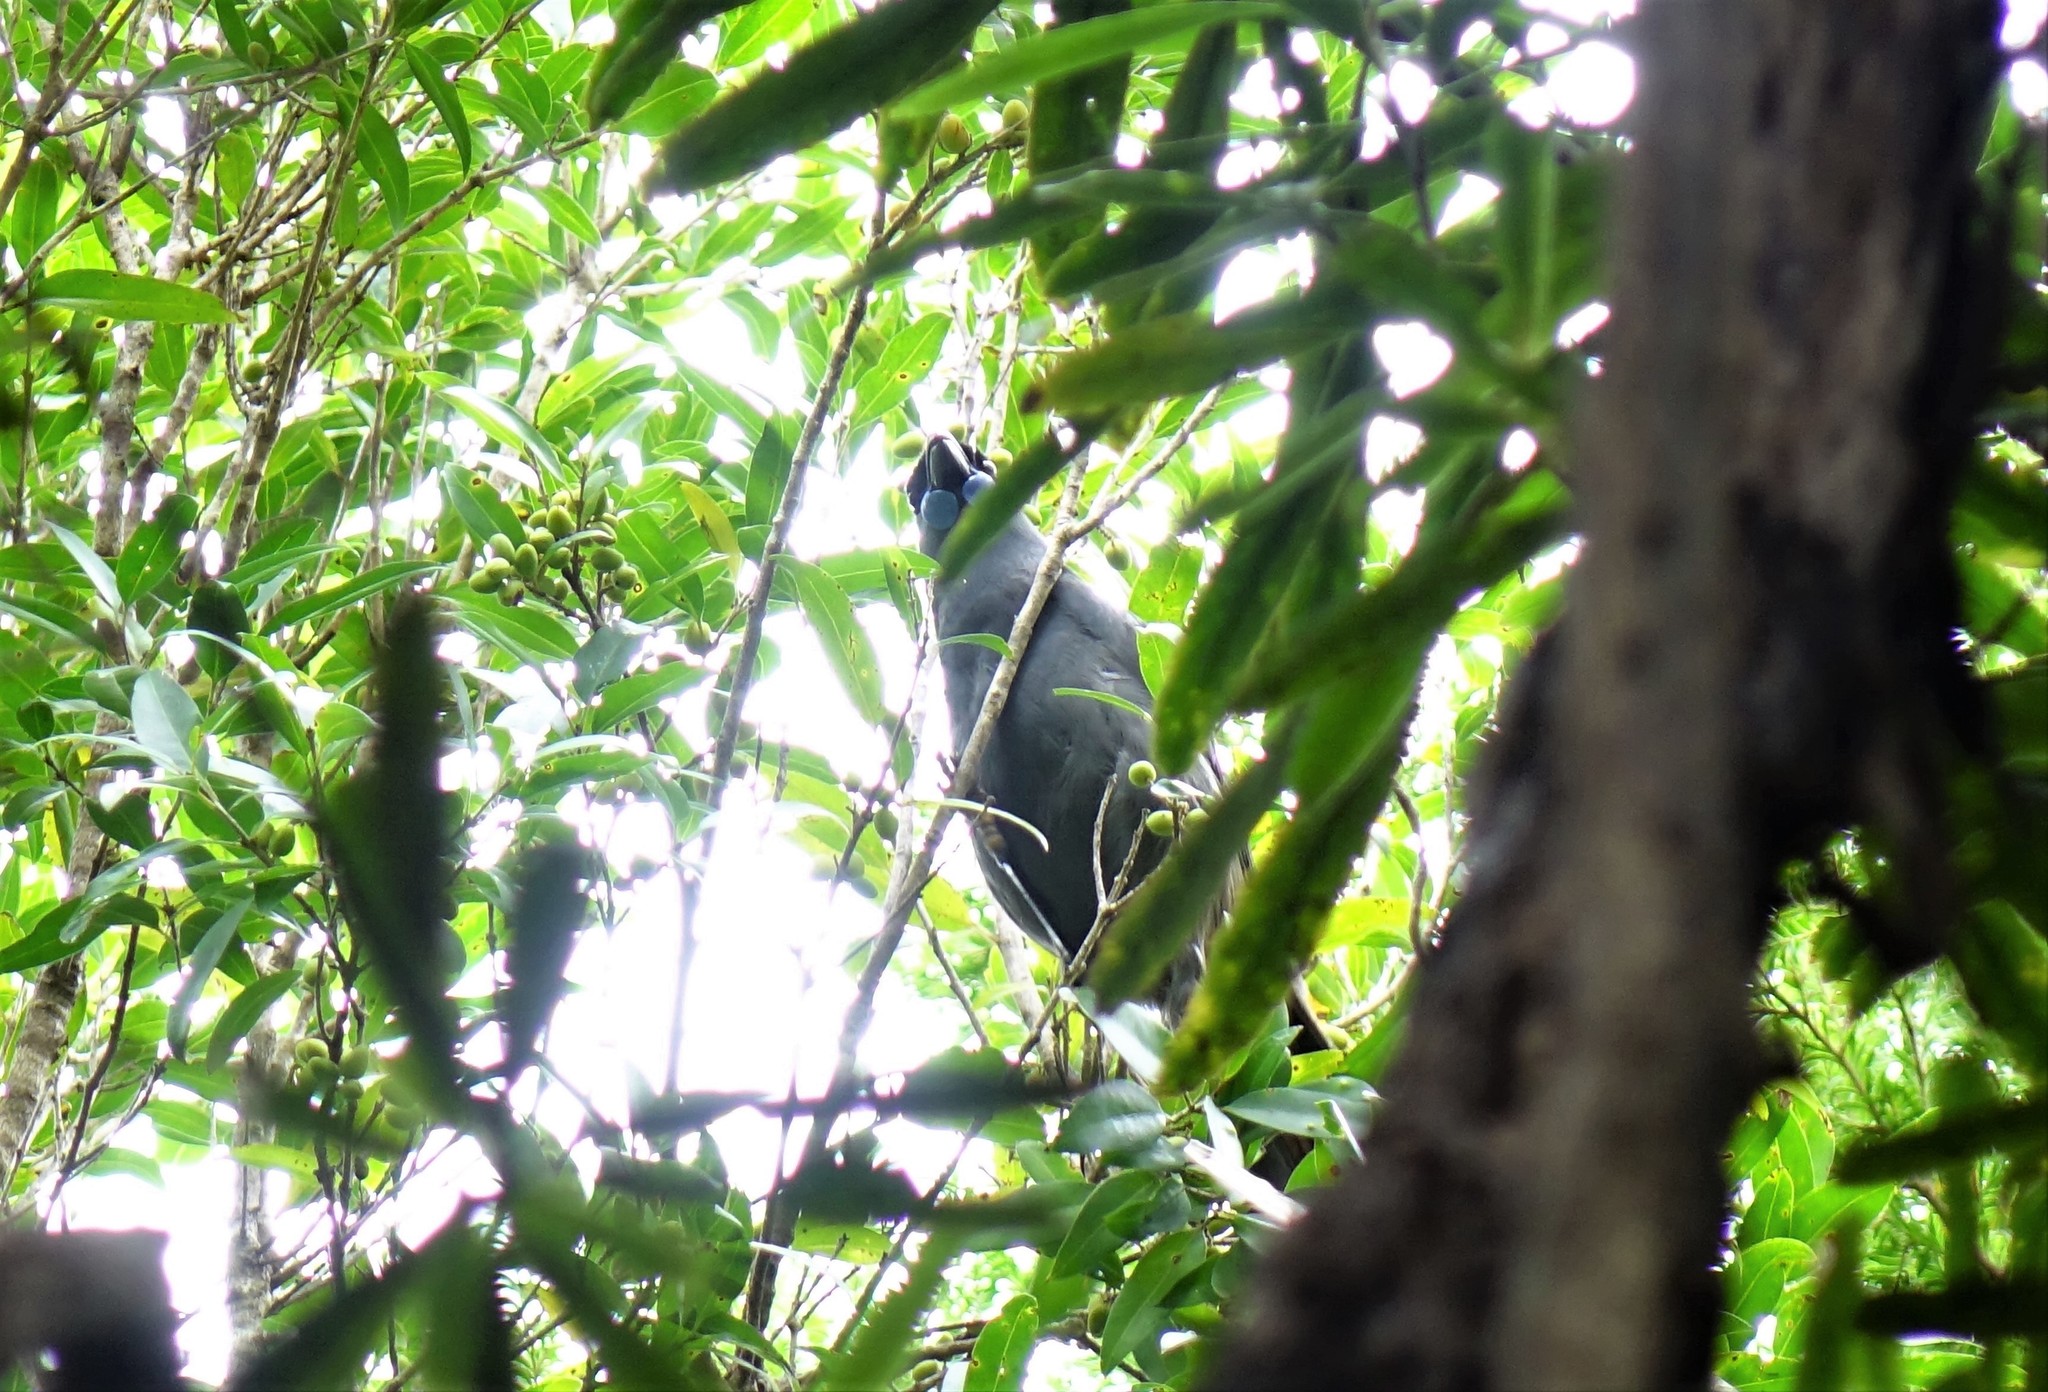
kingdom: Animalia
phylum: Chordata
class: Aves
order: Passeriformes
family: Callaeatidae
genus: Callaeas
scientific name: Callaeas cinereus
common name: South island kokako
